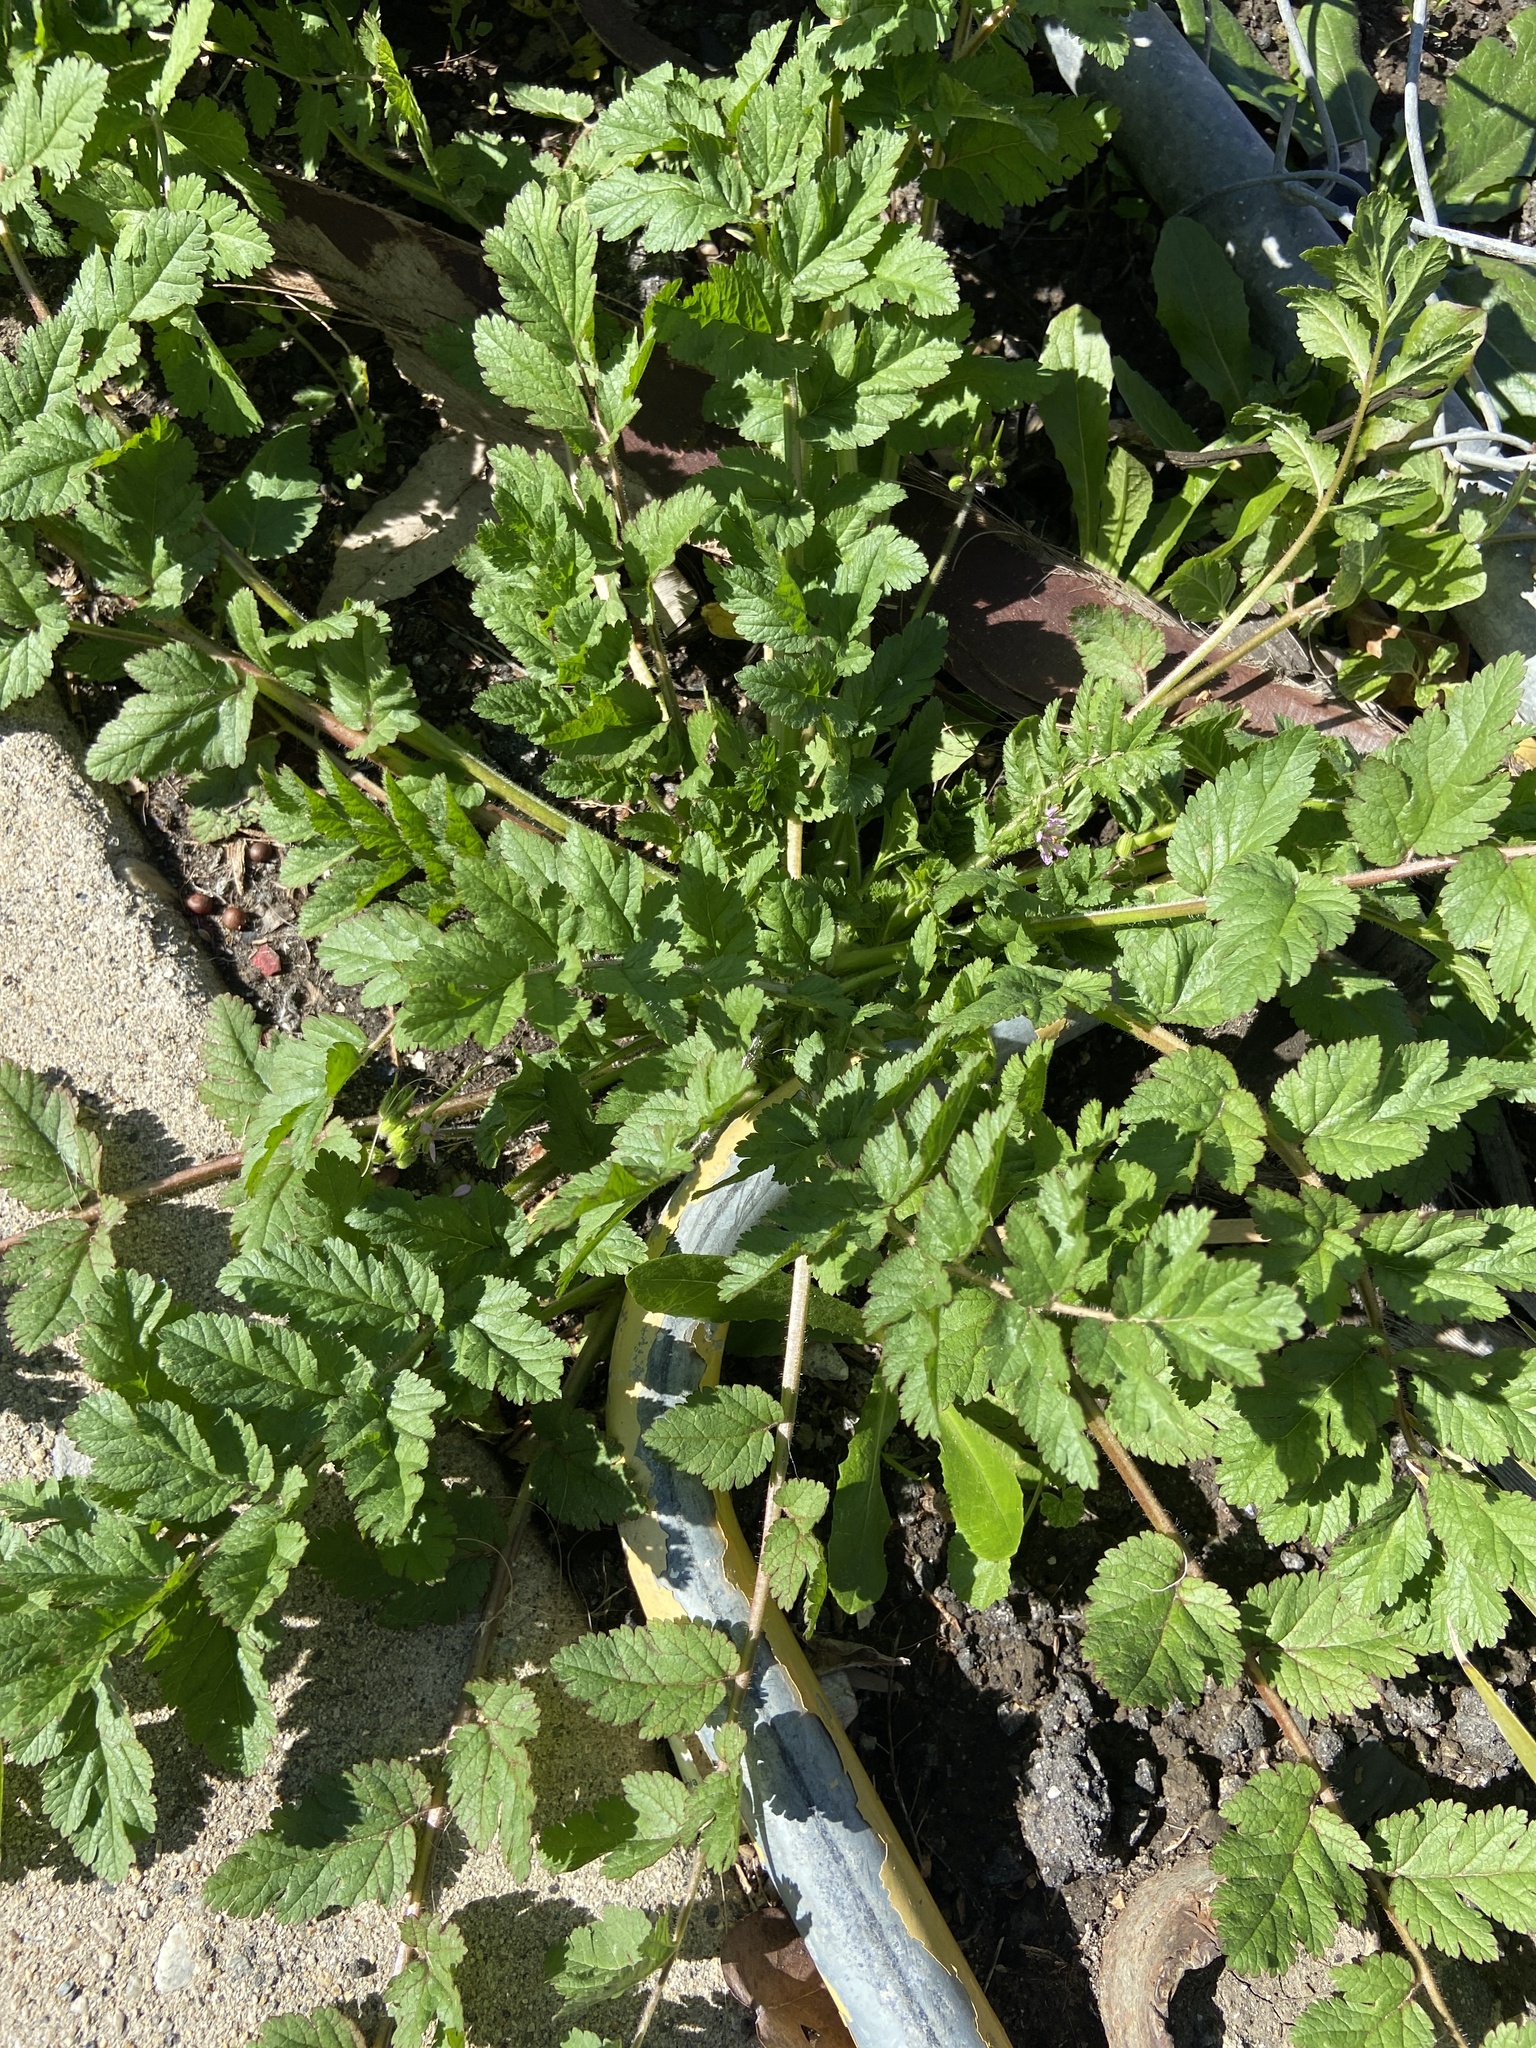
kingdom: Plantae
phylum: Tracheophyta
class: Magnoliopsida
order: Geraniales
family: Geraniaceae
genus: Erodium
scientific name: Erodium moschatum
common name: Musk stork's-bill
